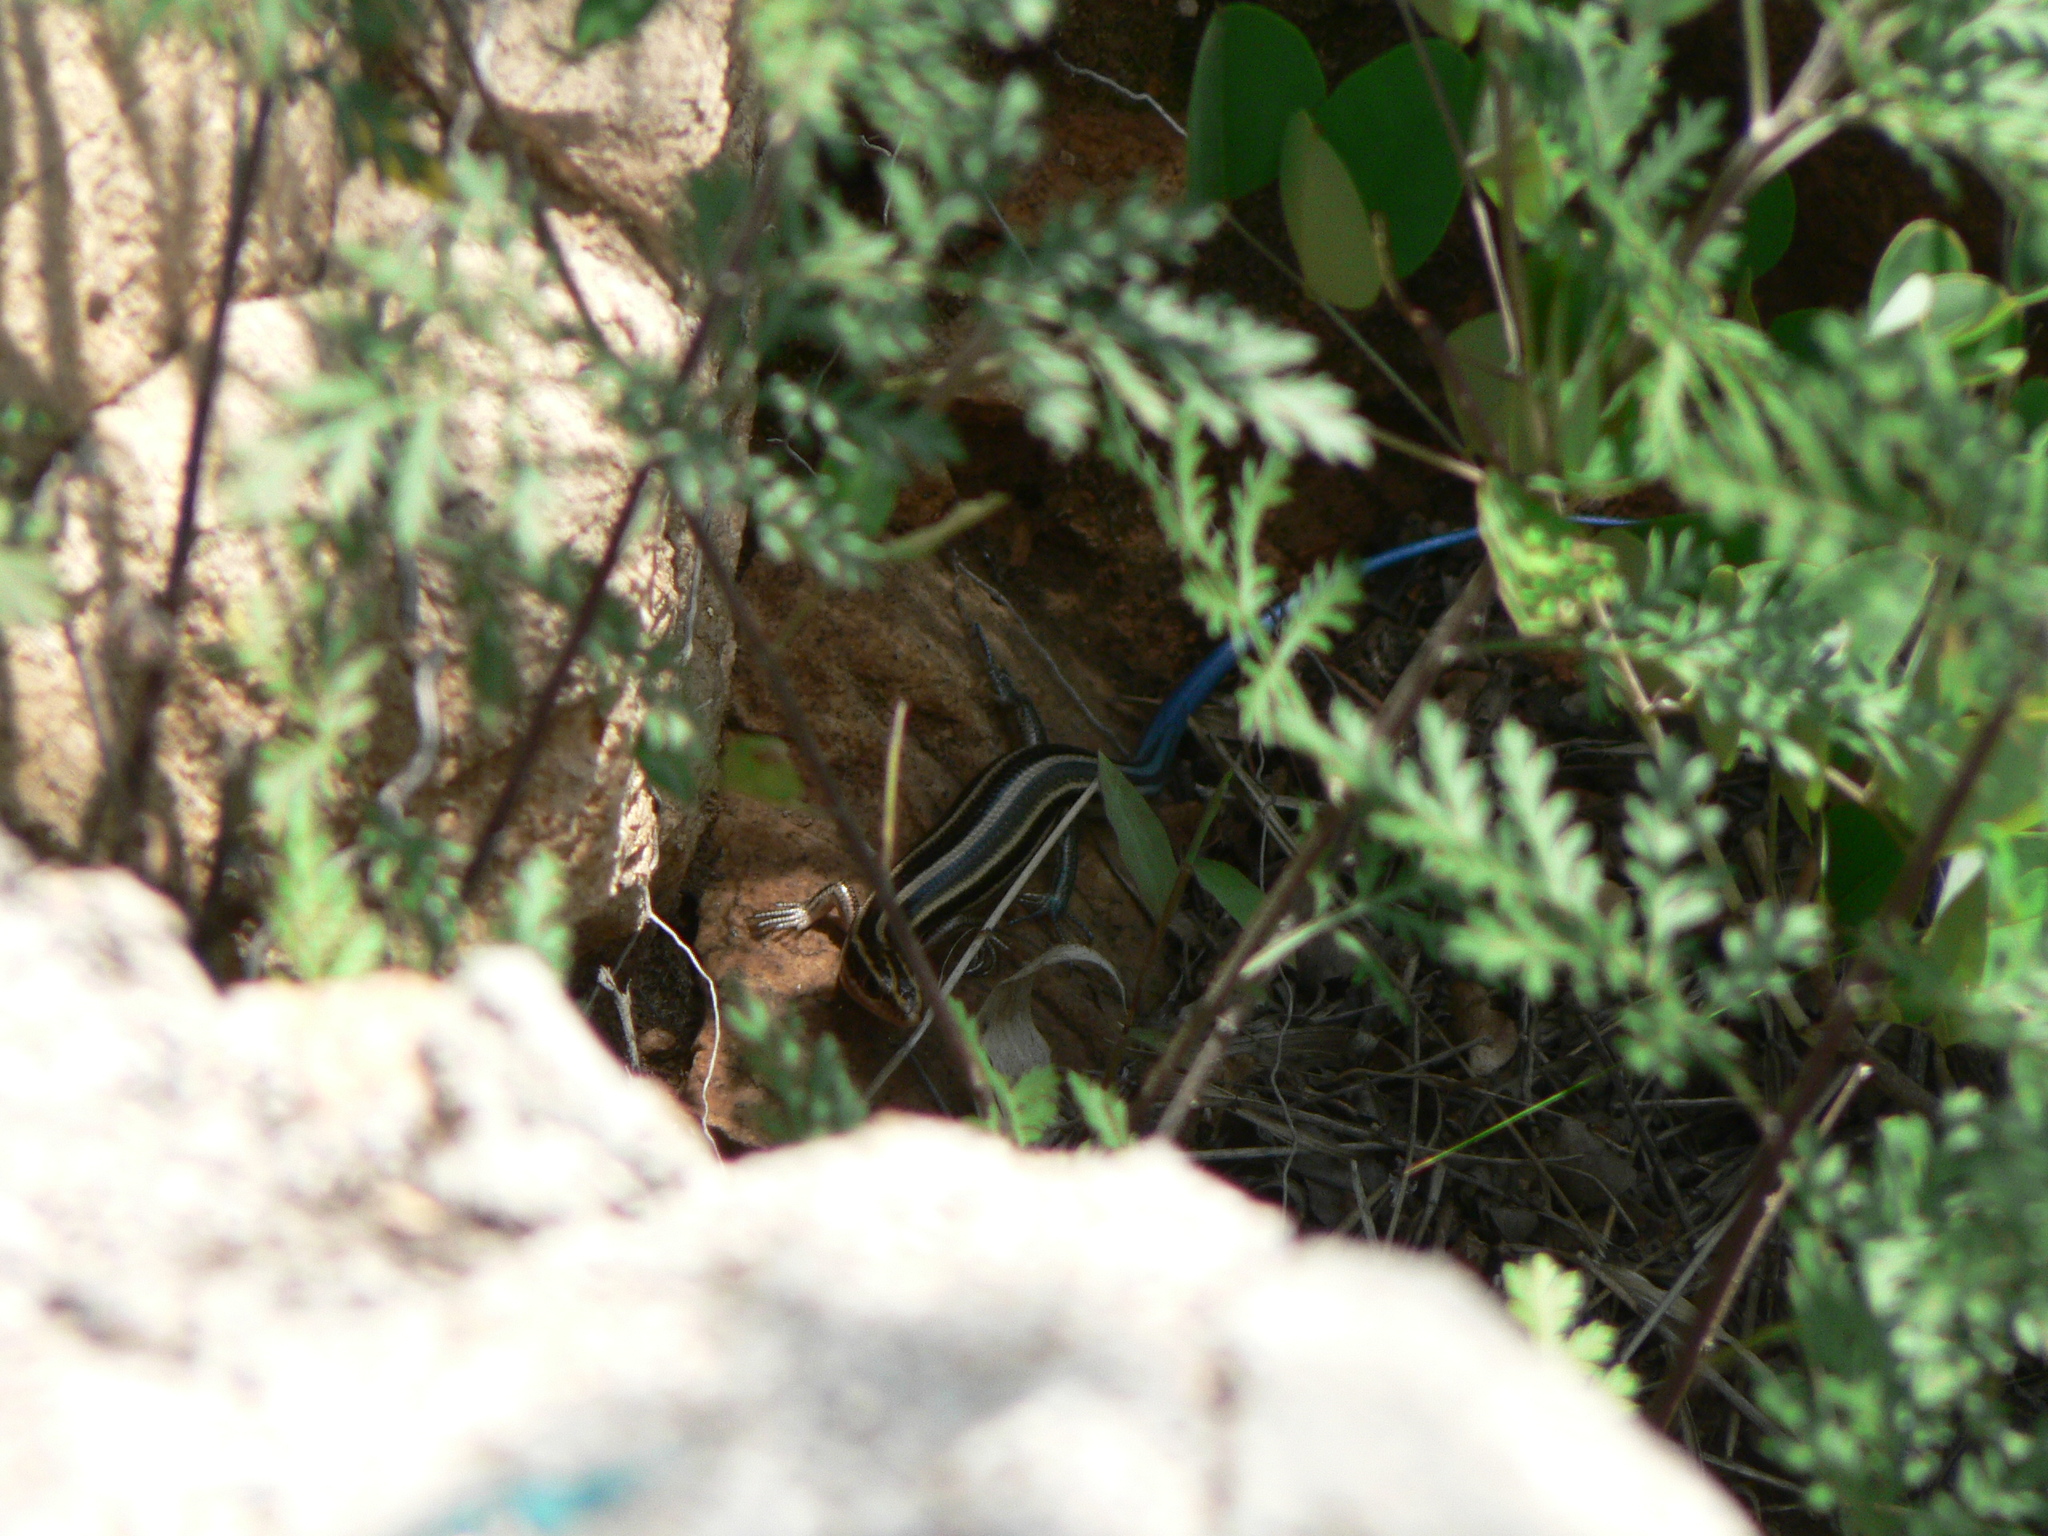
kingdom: Animalia
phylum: Chordata
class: Squamata
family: Scincidae
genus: Plestiodon
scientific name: Plestiodon capito
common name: Gail's eyelid skink
